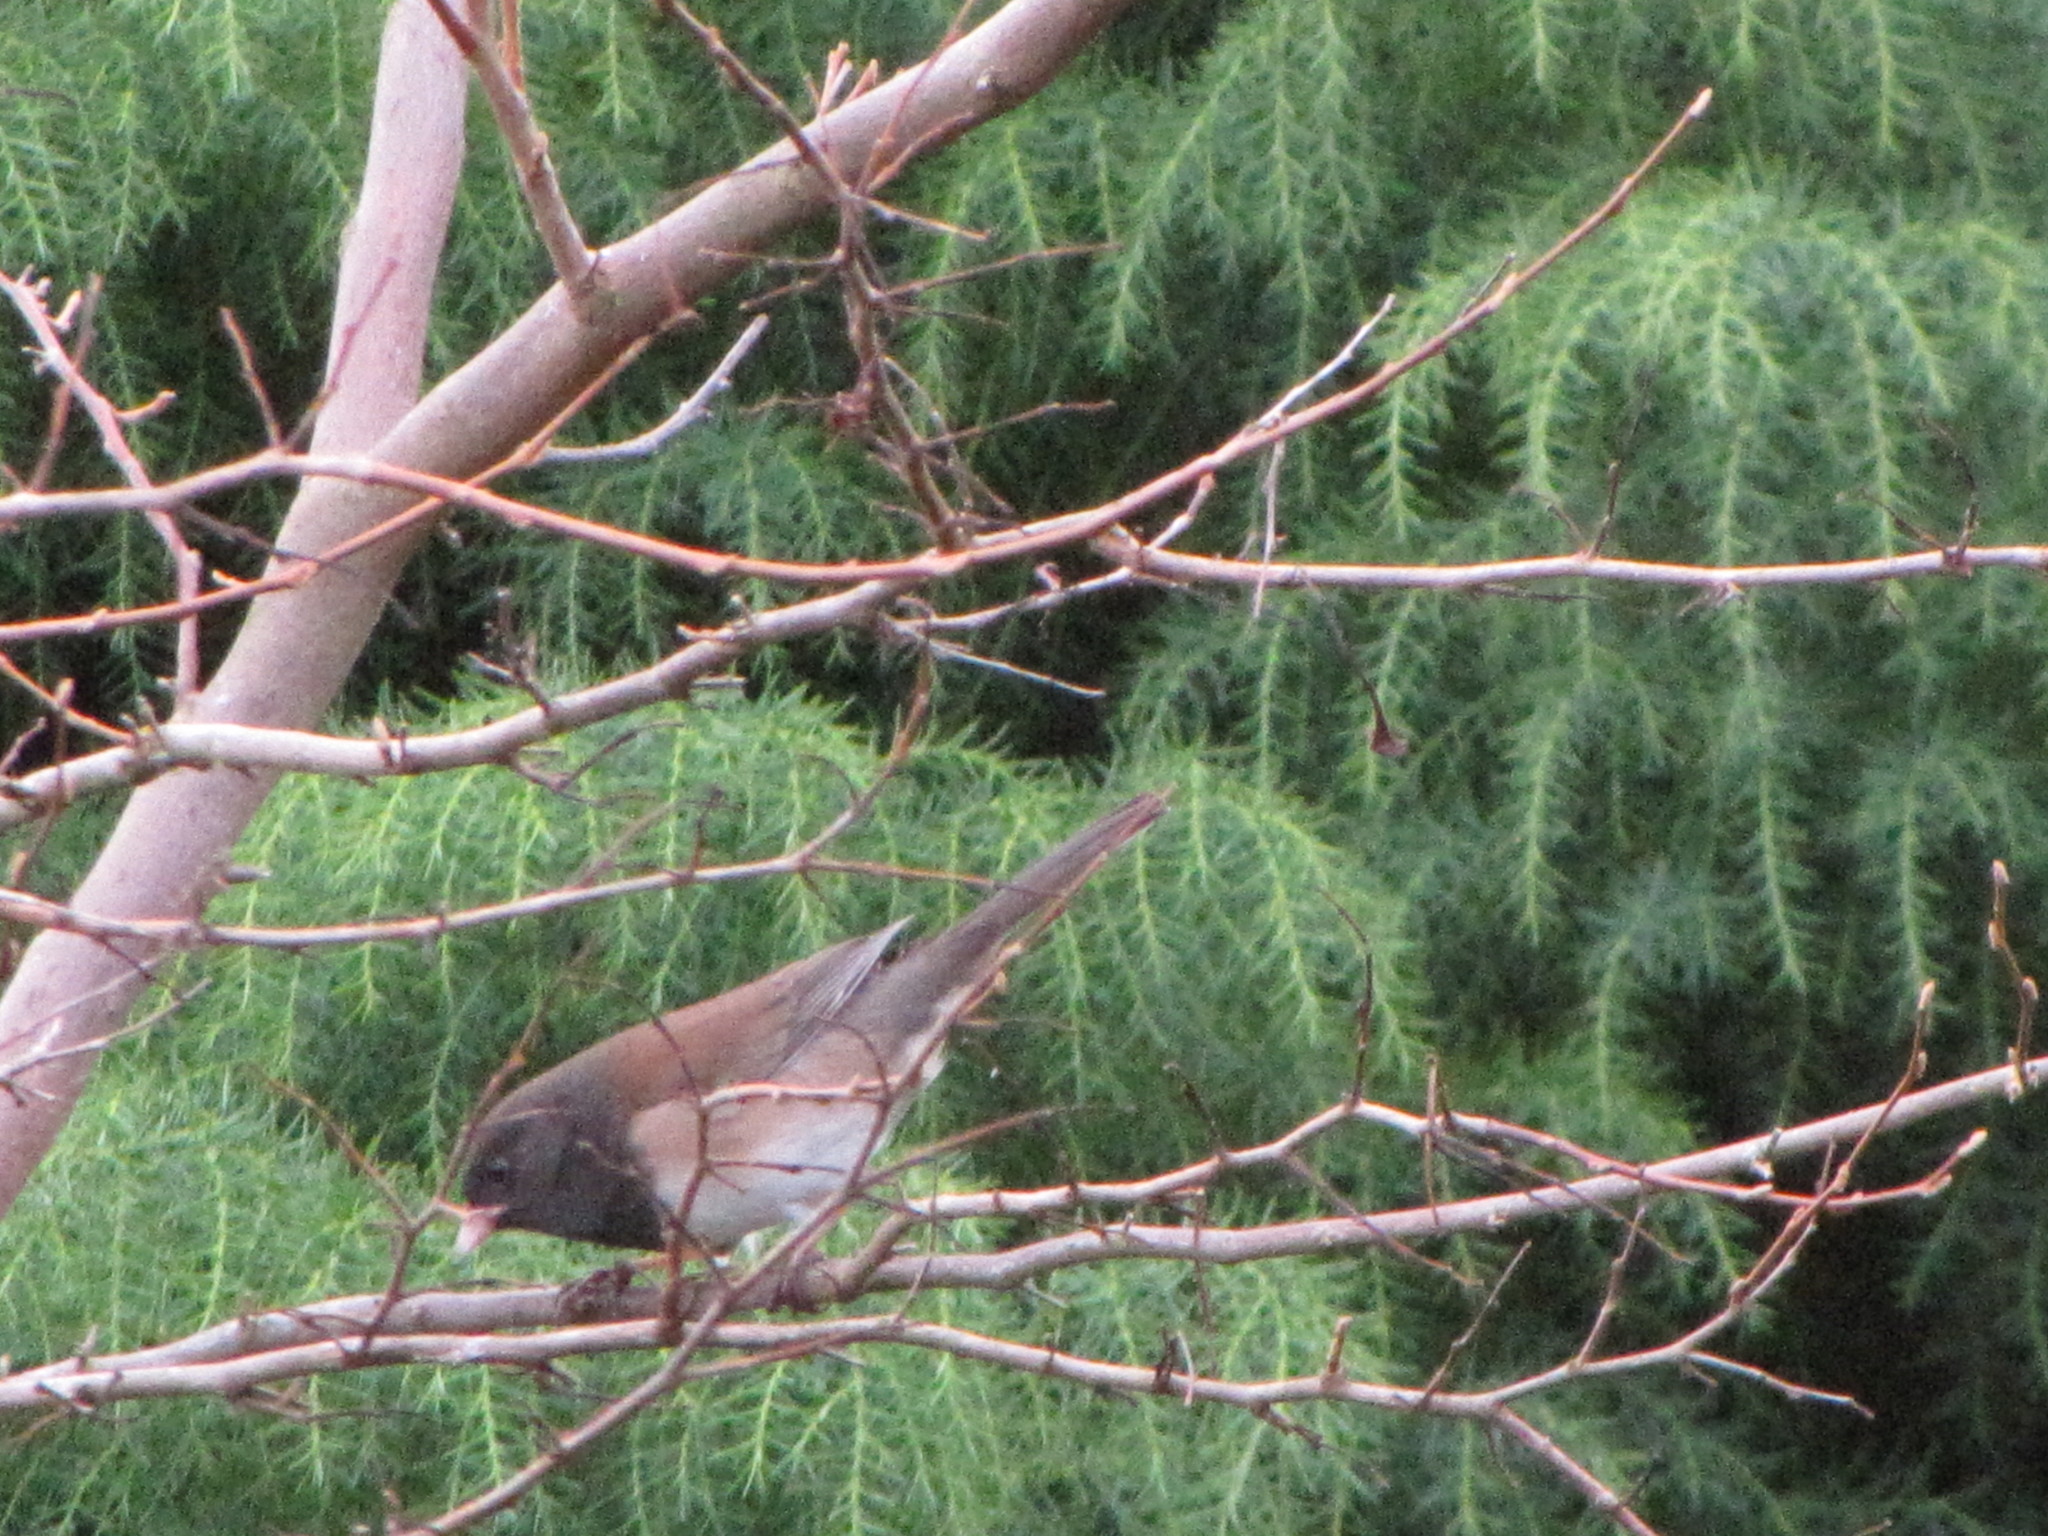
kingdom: Animalia
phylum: Chordata
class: Aves
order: Passeriformes
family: Passerellidae
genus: Junco
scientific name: Junco hyemalis
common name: Dark-eyed junco
